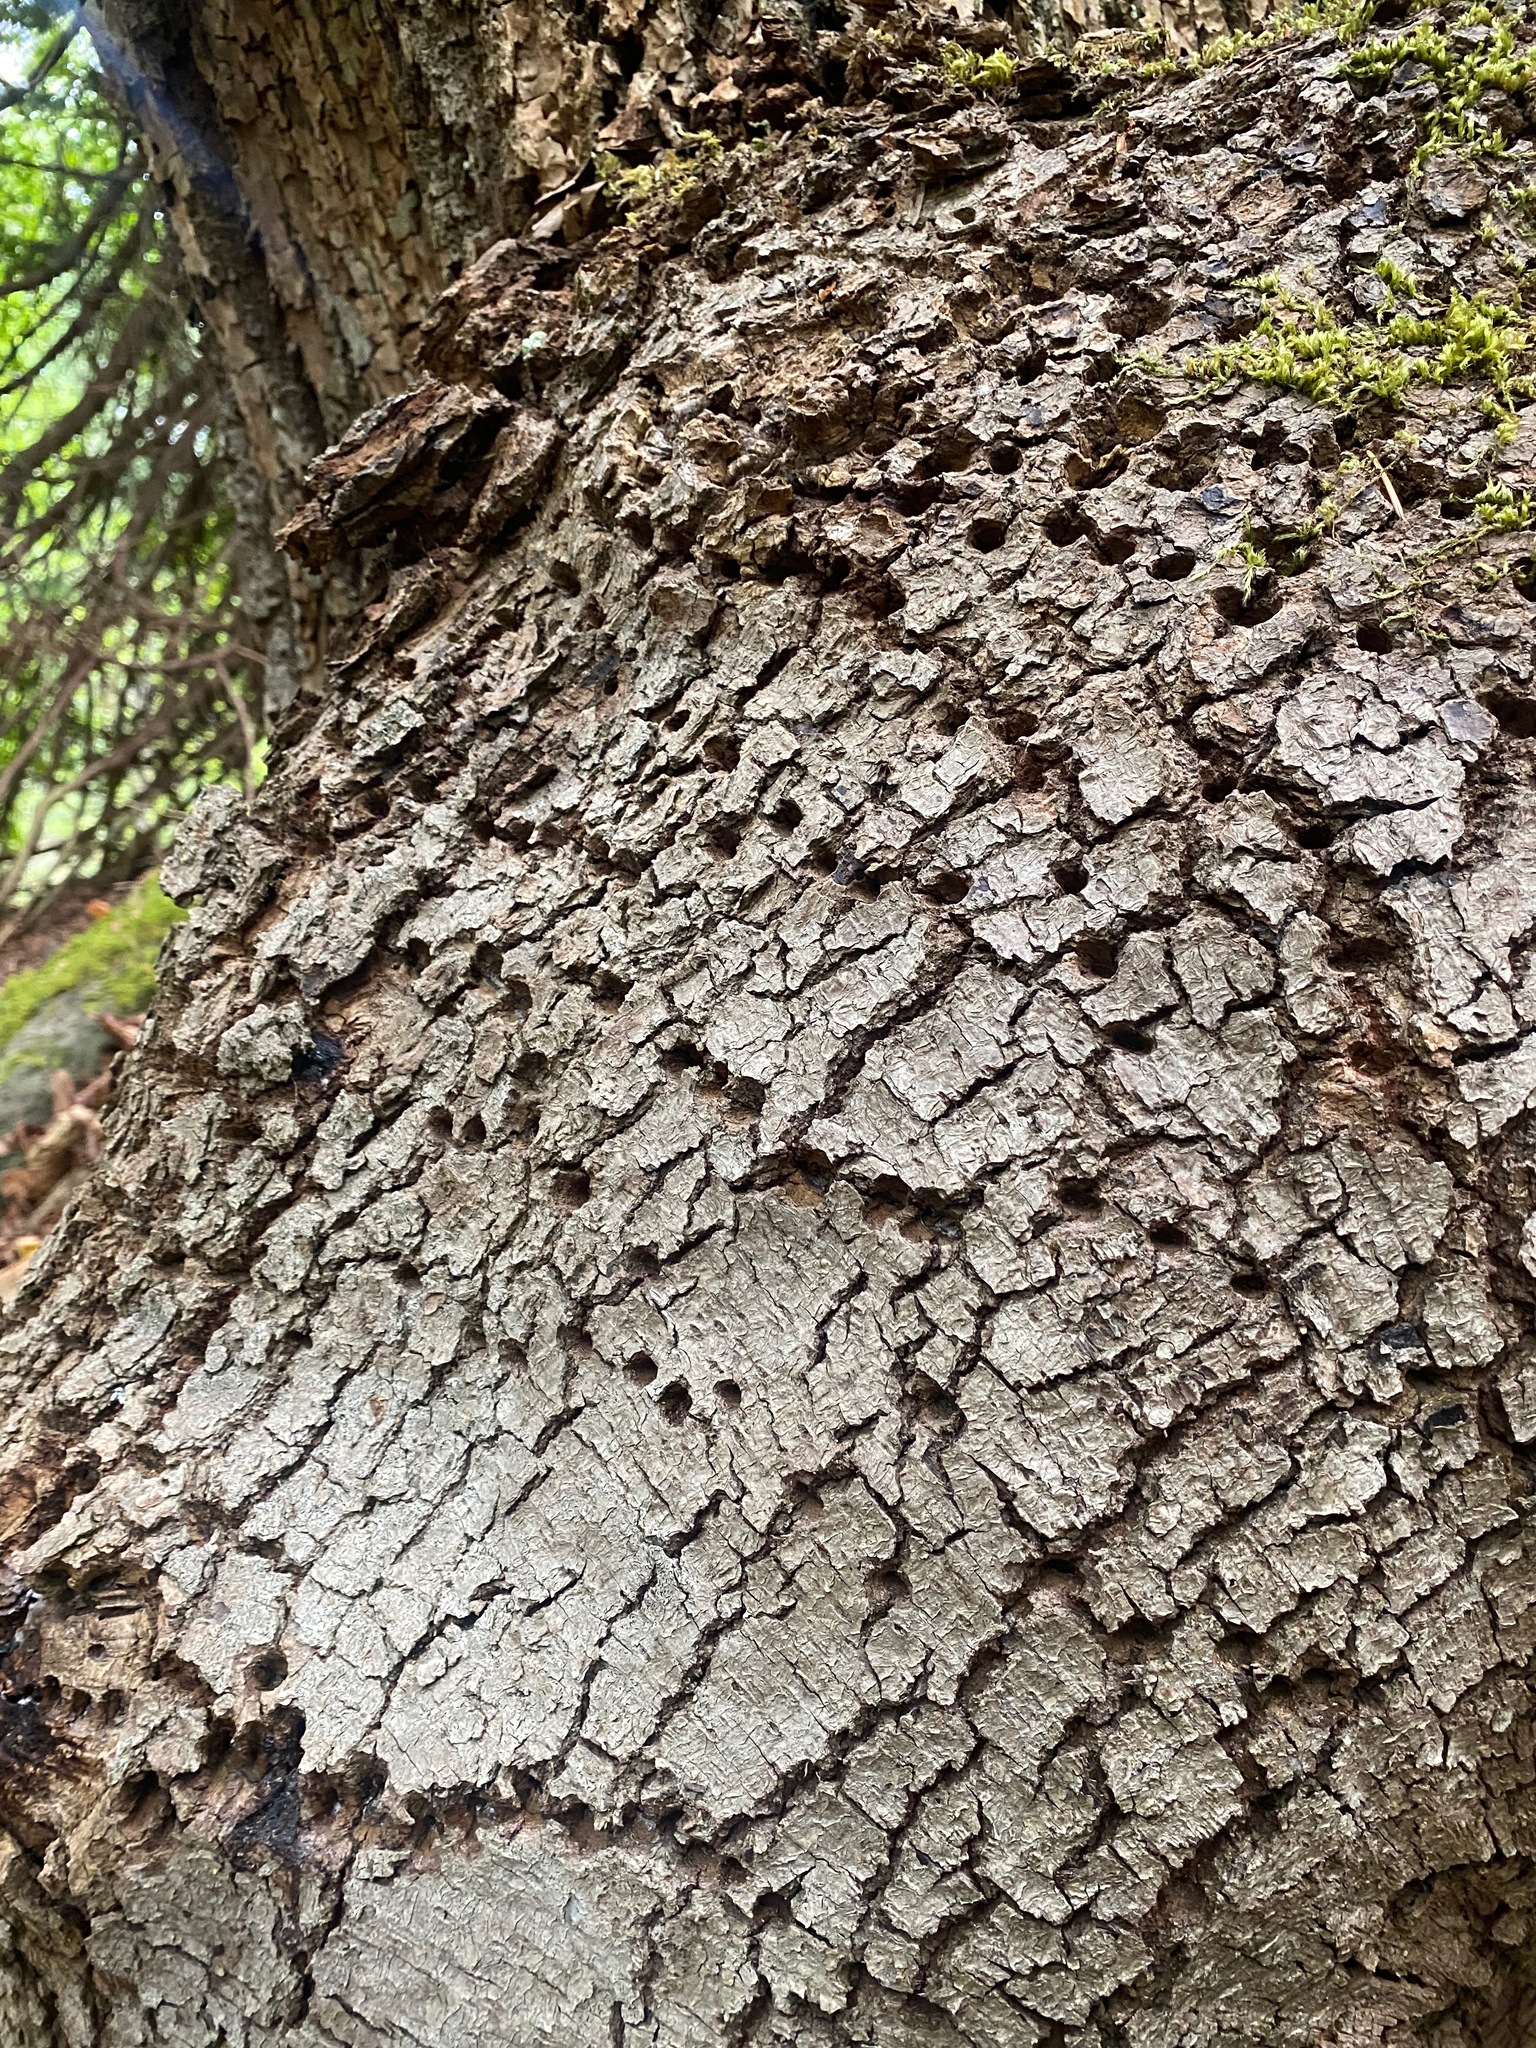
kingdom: Animalia
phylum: Chordata
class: Aves
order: Piciformes
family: Picidae
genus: Sphyrapicus
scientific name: Sphyrapicus ruber
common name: Red-breasted sapsucker
